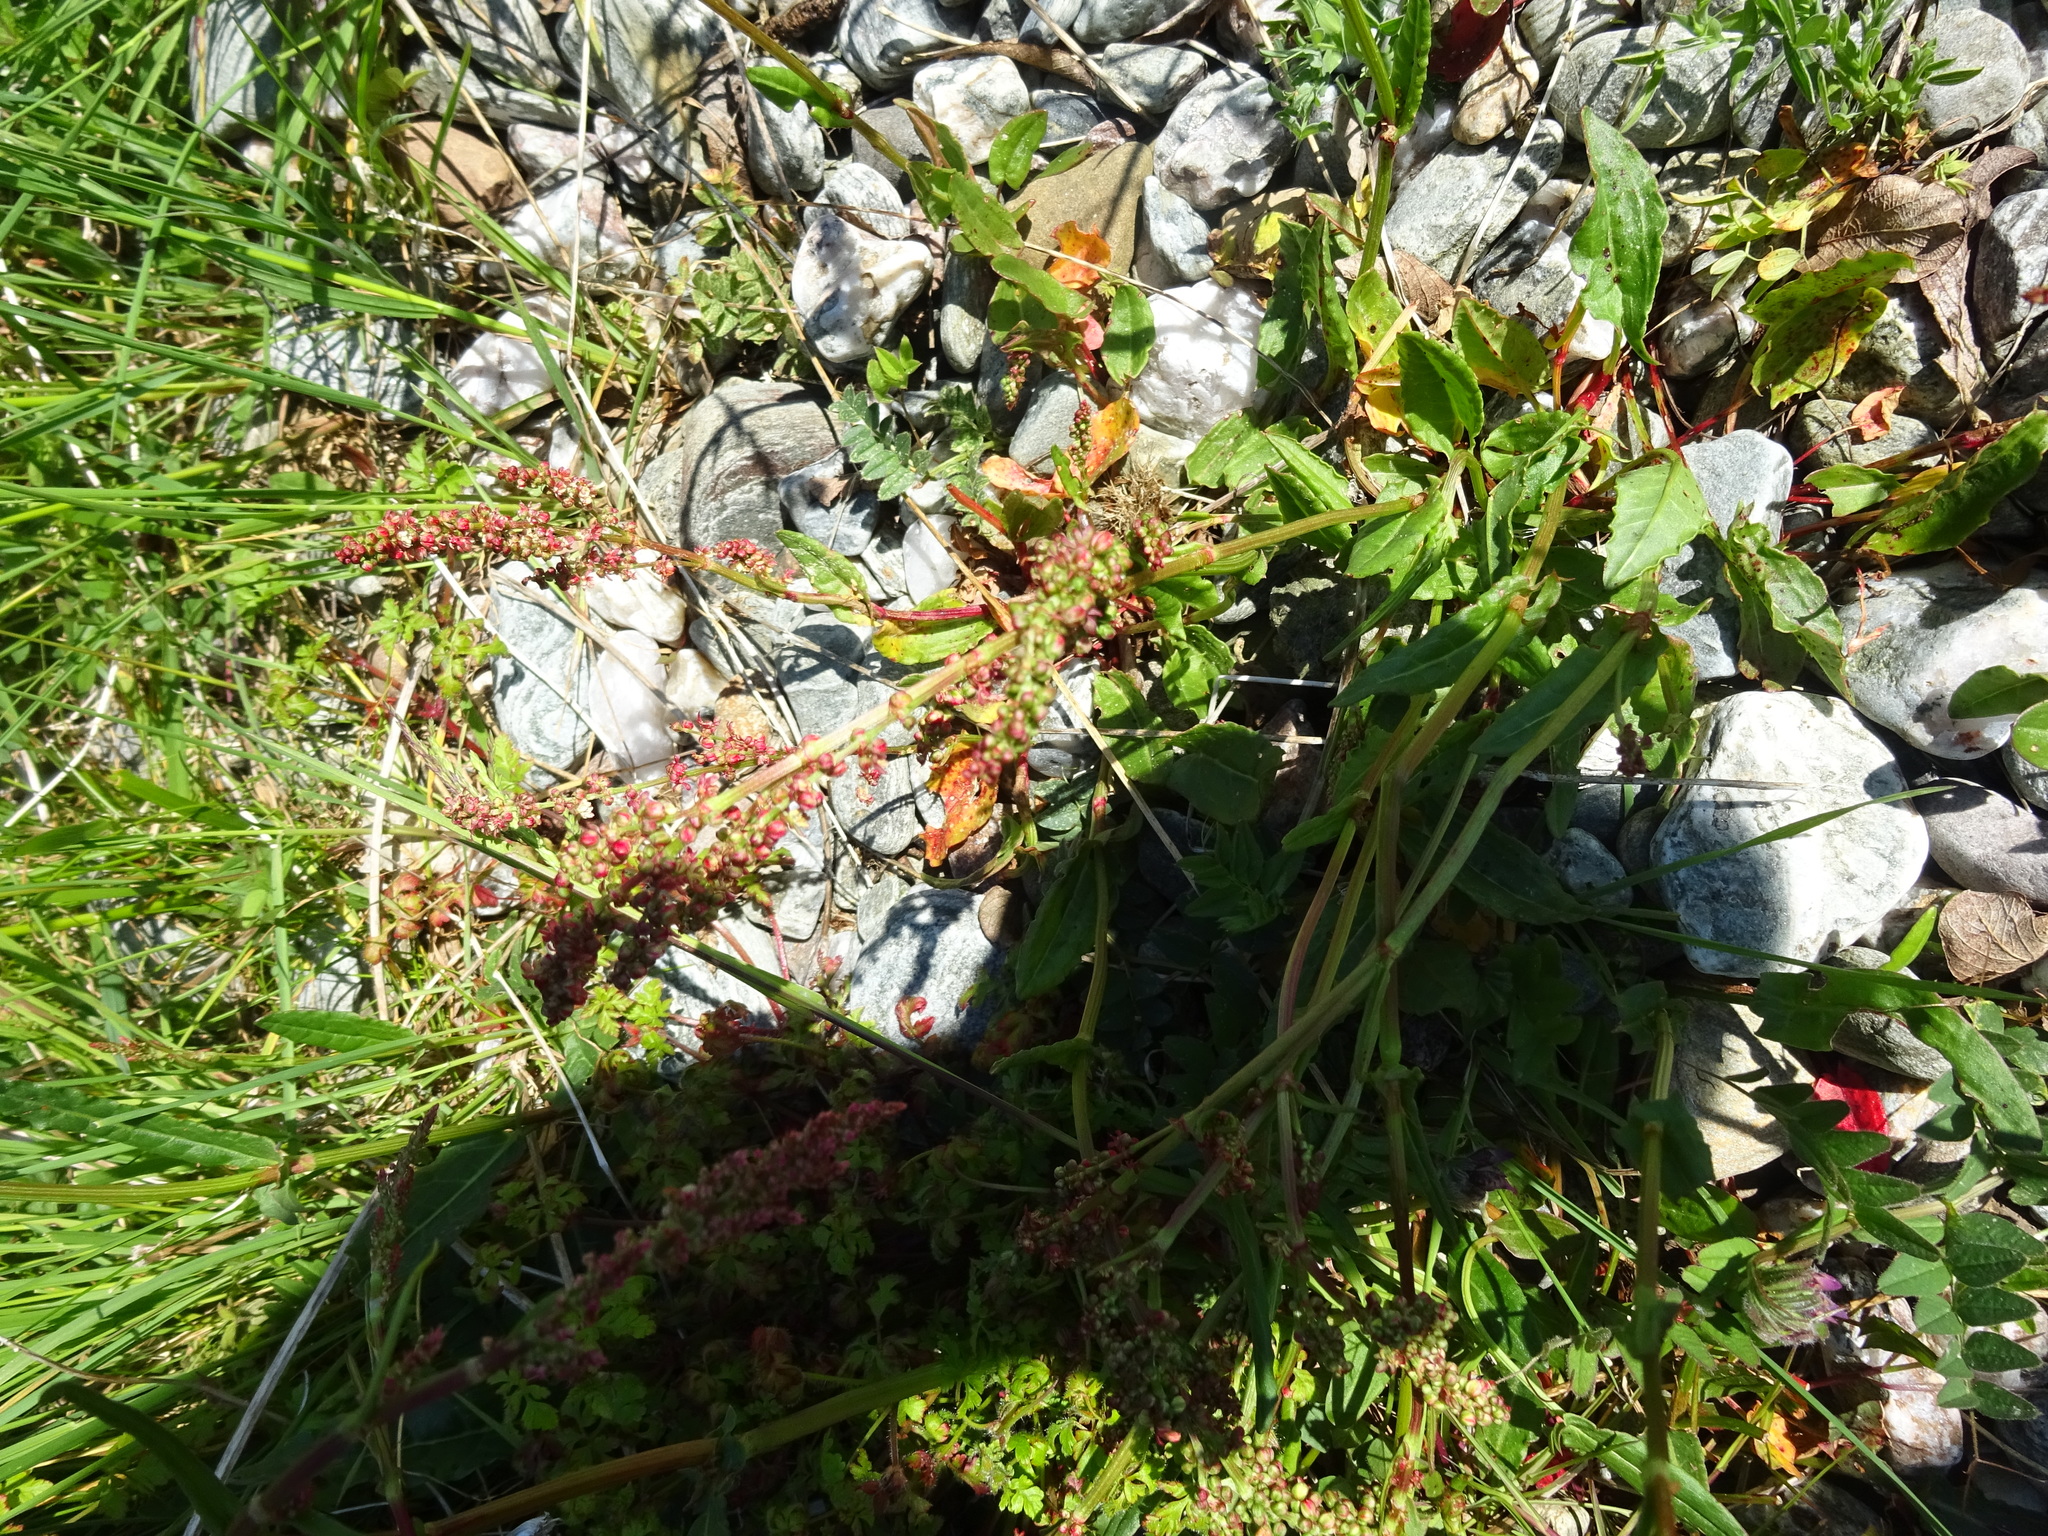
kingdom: Plantae
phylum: Tracheophyta
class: Magnoliopsida
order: Caryophyllales
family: Polygonaceae
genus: Rumex
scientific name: Rumex acetosa
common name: Garden sorrel
